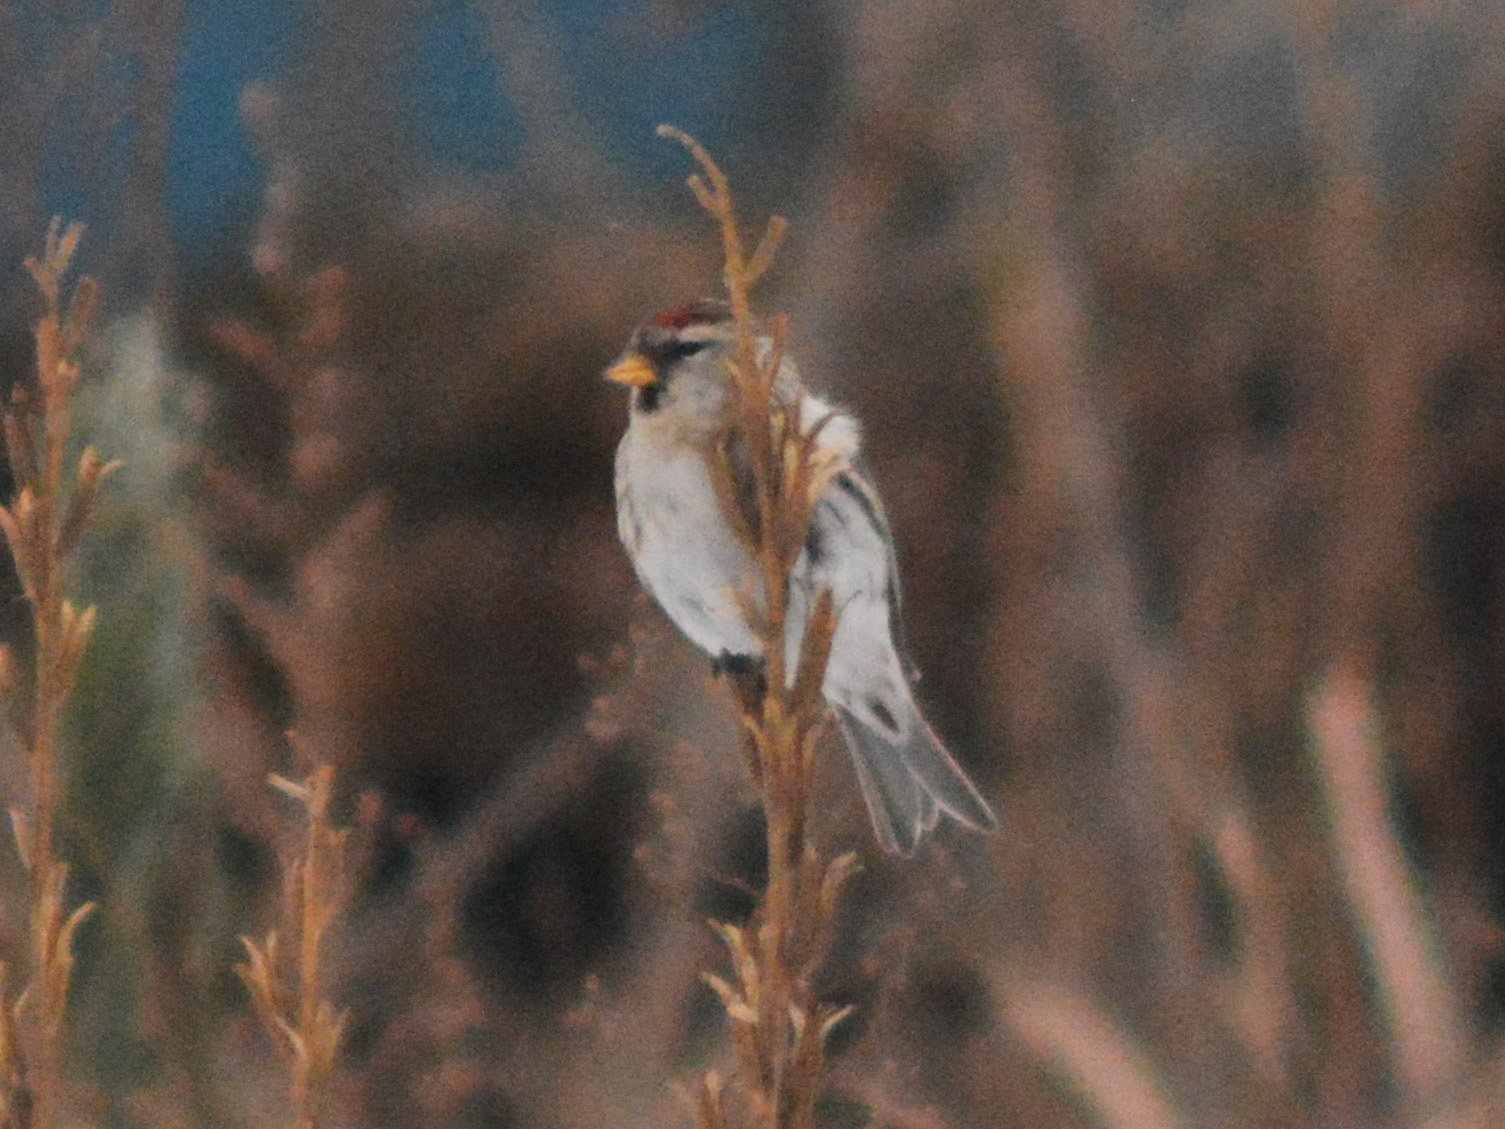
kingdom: Animalia
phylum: Chordata
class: Aves
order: Passeriformes
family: Fringillidae
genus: Acanthis
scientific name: Acanthis flammea
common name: Common redpoll
